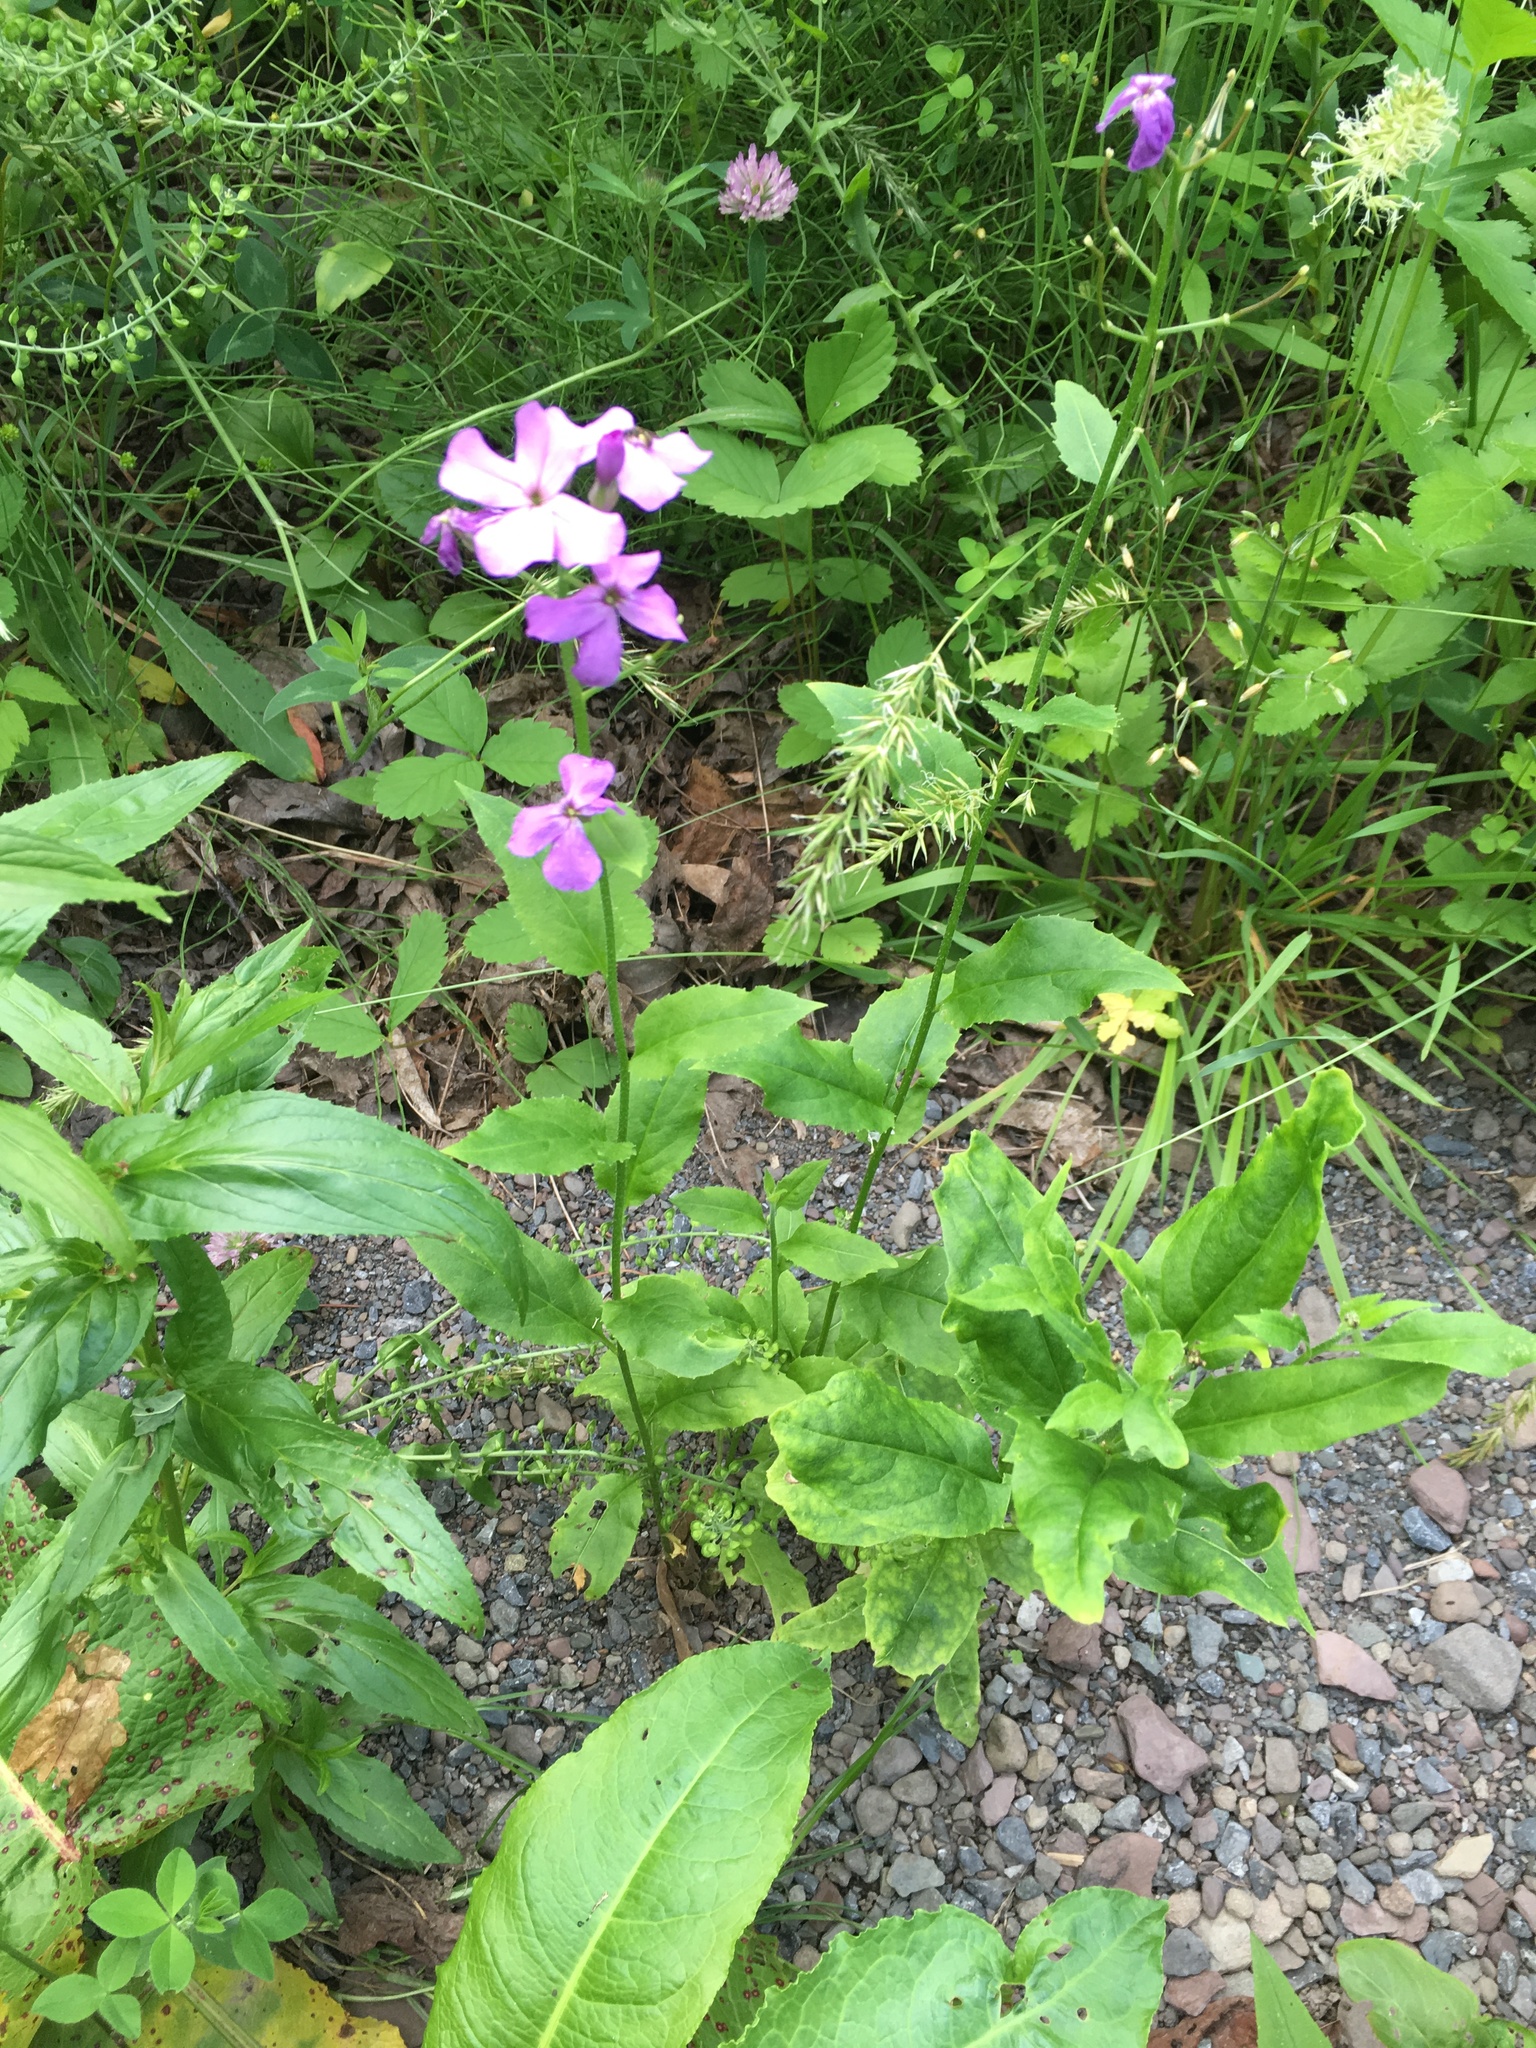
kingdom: Plantae
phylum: Tracheophyta
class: Magnoliopsida
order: Brassicales
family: Brassicaceae
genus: Hesperis
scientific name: Hesperis matronalis
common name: Dame's-violet
